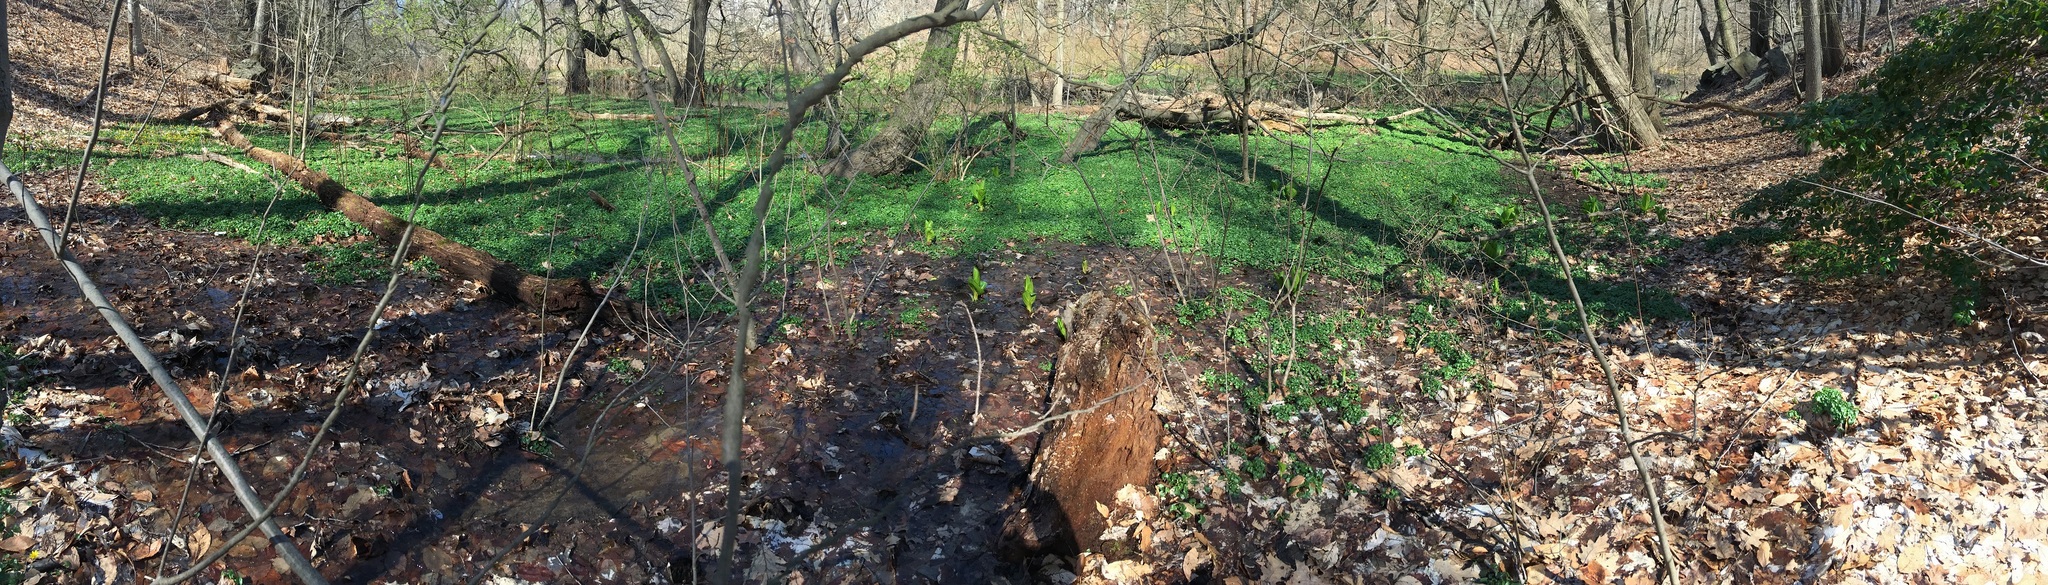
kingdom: Plantae
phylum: Tracheophyta
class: Liliopsida
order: Alismatales
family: Araceae
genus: Symplocarpus
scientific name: Symplocarpus foetidus
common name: Eastern skunk cabbage
